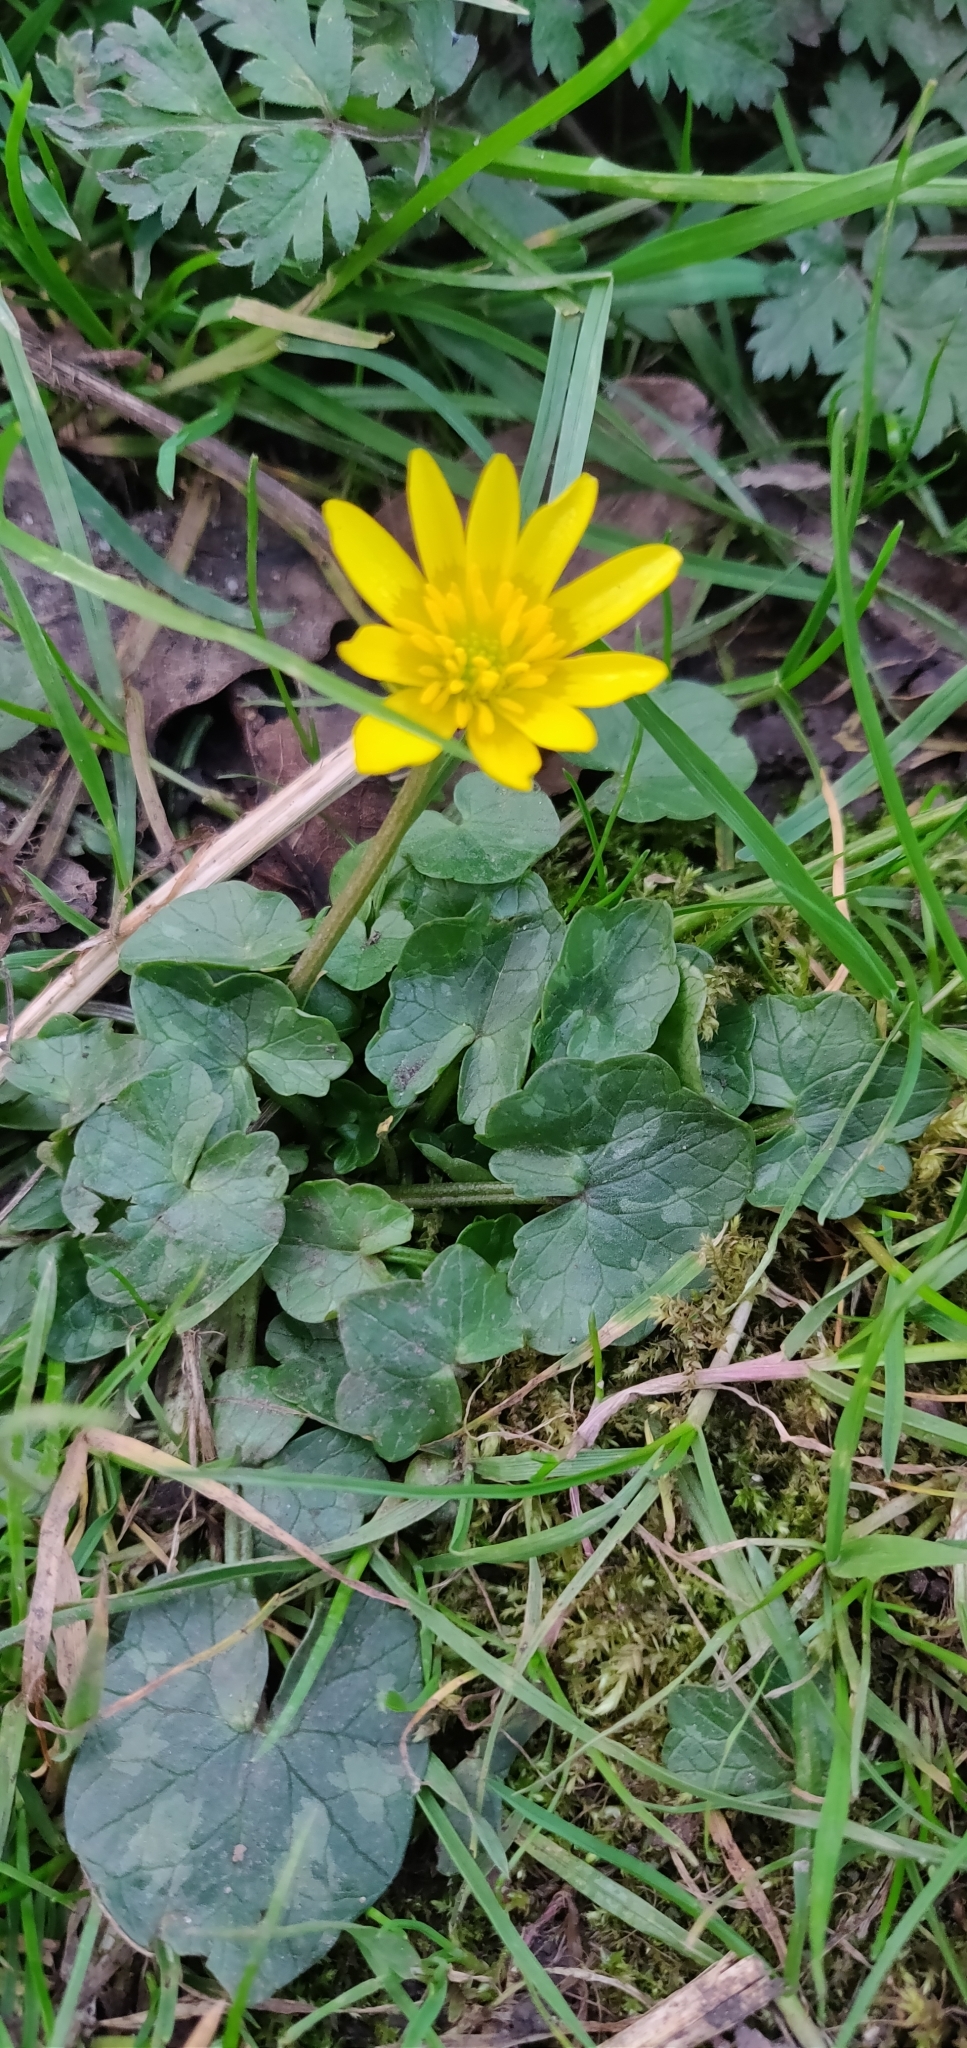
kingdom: Plantae
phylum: Tracheophyta
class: Magnoliopsida
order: Ranunculales
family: Ranunculaceae
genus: Ficaria
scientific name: Ficaria verna
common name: Lesser celandine
